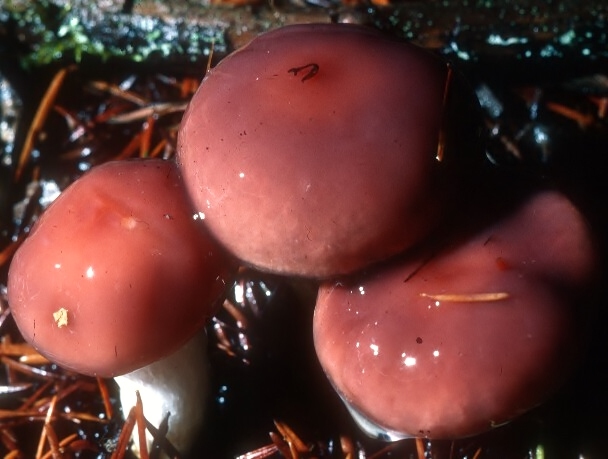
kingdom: Fungi
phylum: Basidiomycota
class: Agaricomycetes
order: Boletales
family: Gomphidiaceae
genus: Gomphidius
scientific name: Gomphidius subroseus
